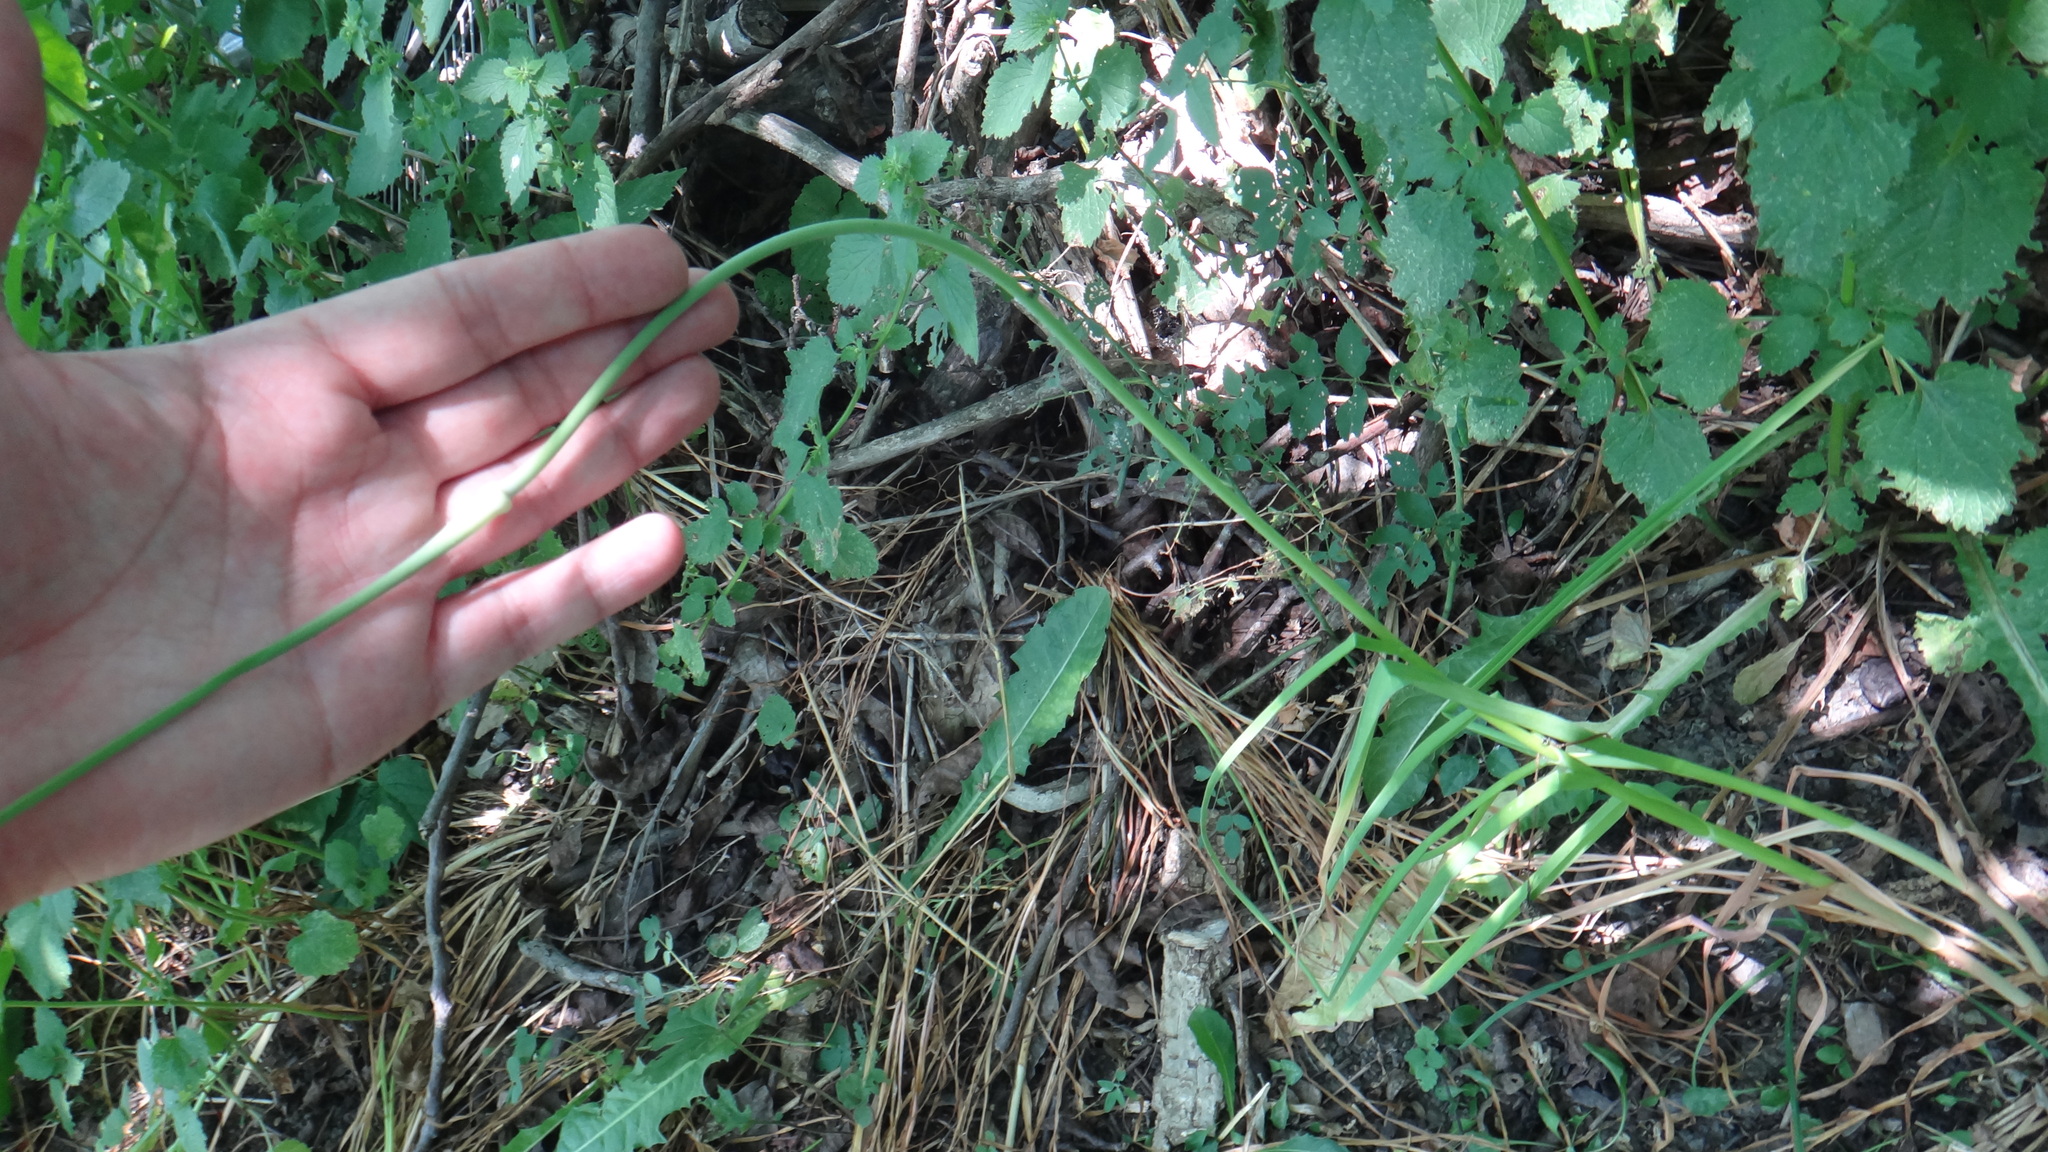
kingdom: Plantae
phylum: Tracheophyta
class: Liliopsida
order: Asparagales
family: Amaryllidaceae
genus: Allium
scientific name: Allium sativum
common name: Garlic
